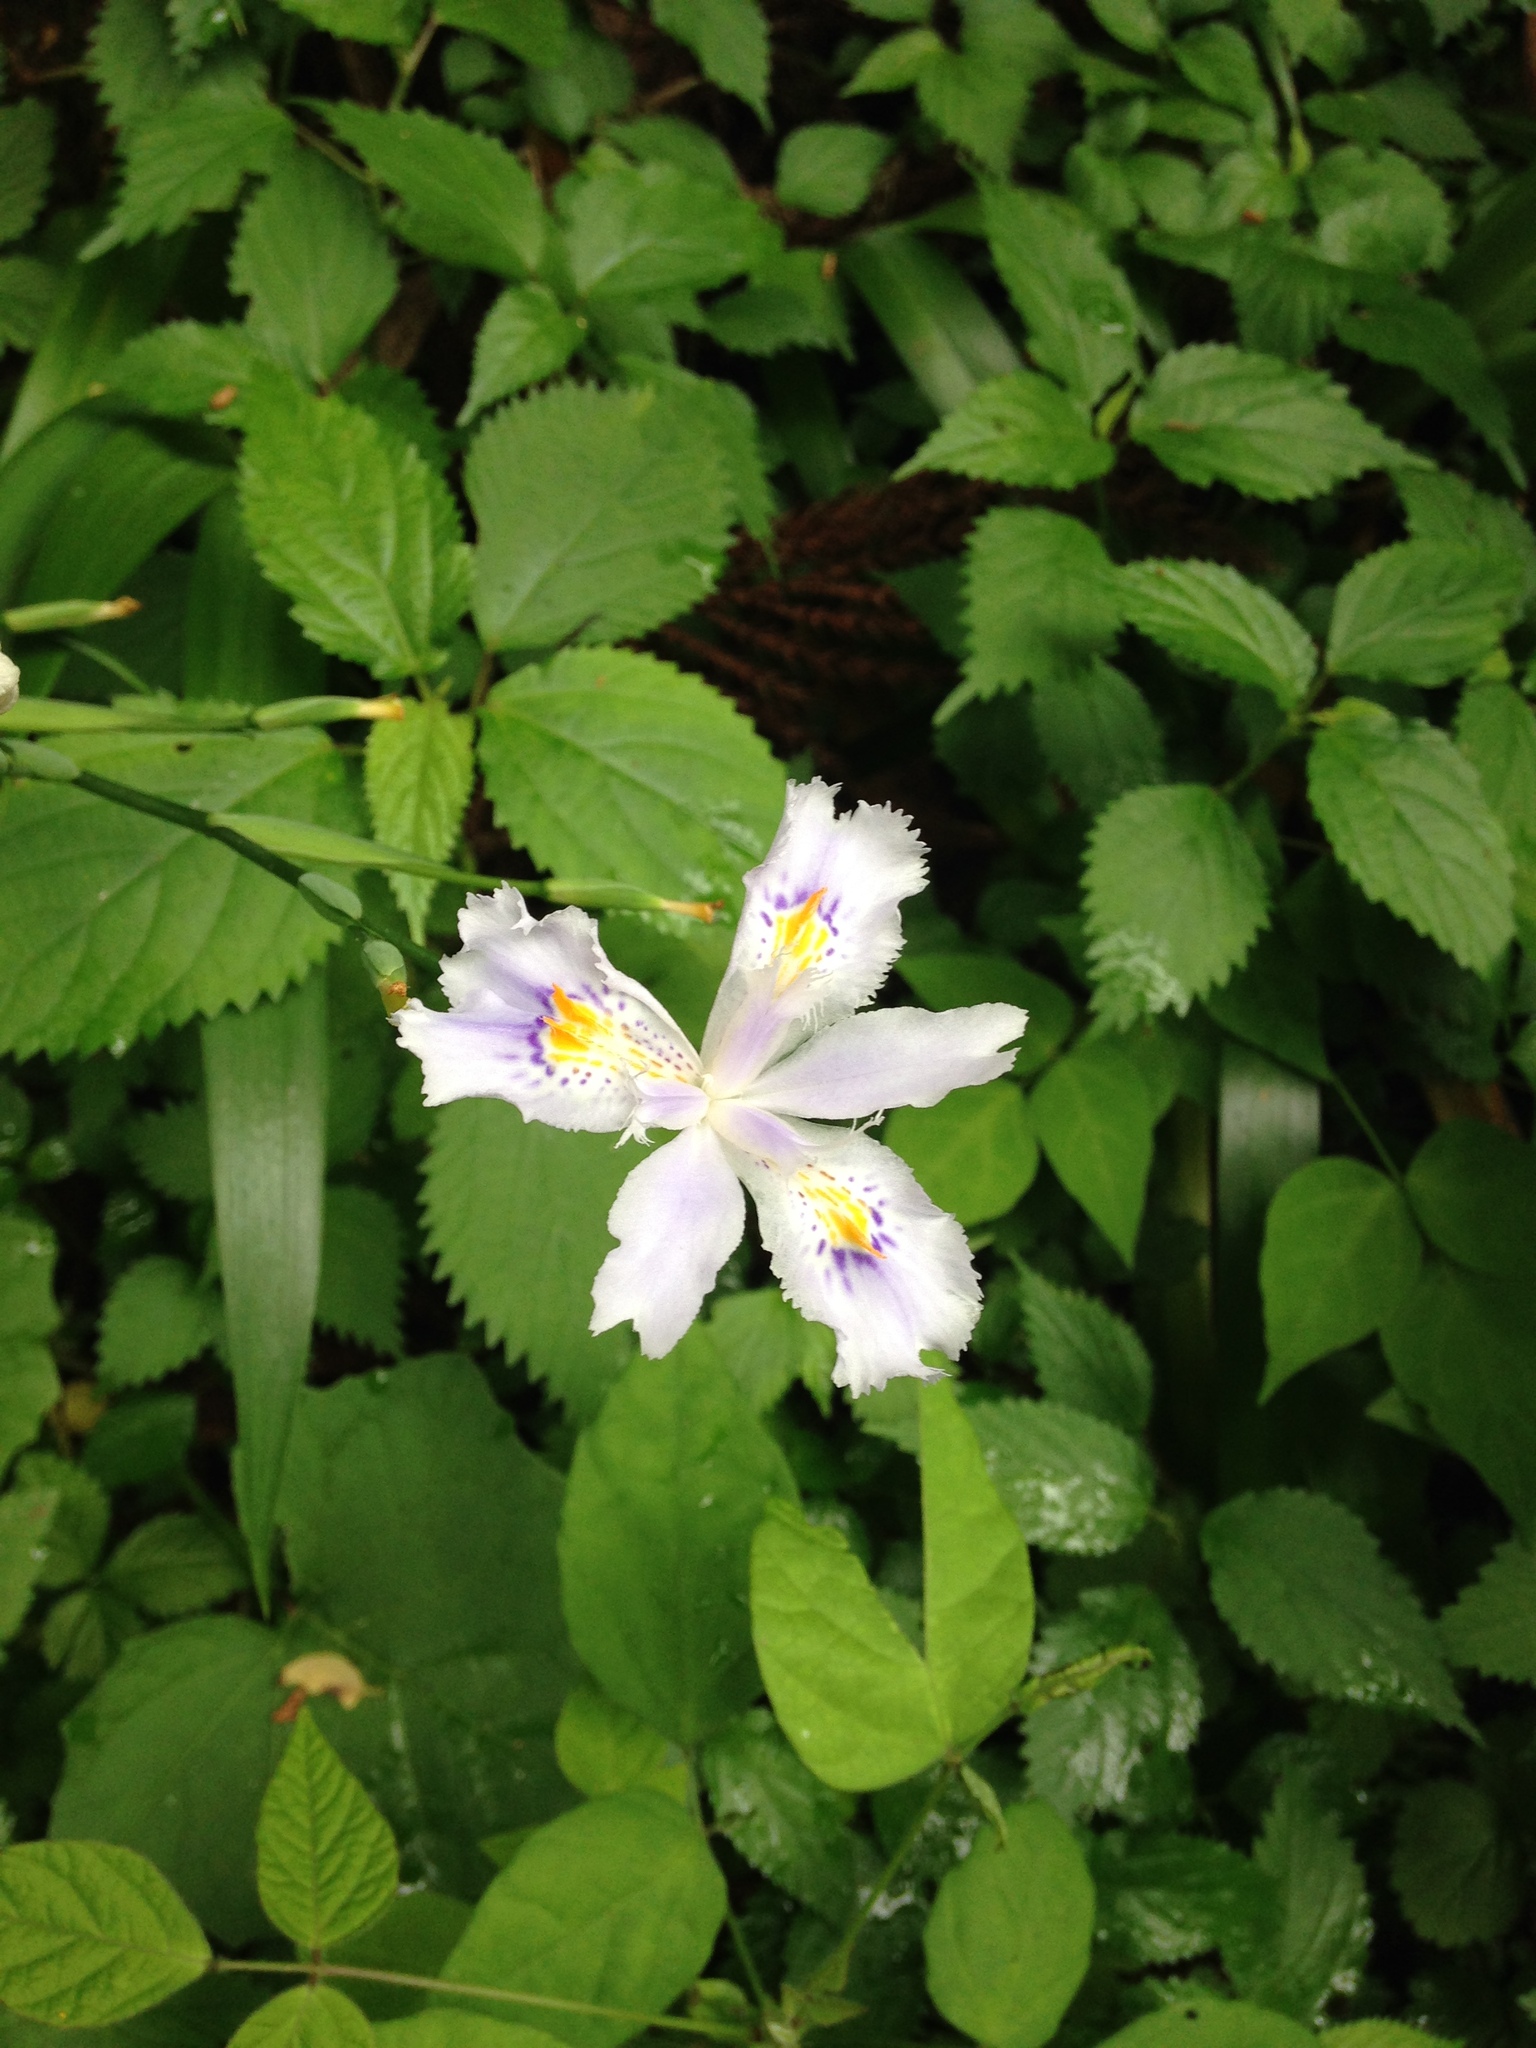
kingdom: Plantae
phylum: Tracheophyta
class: Liliopsida
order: Asparagales
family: Iridaceae
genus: Iris
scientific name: Iris japonica
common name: Butterfly-flower
